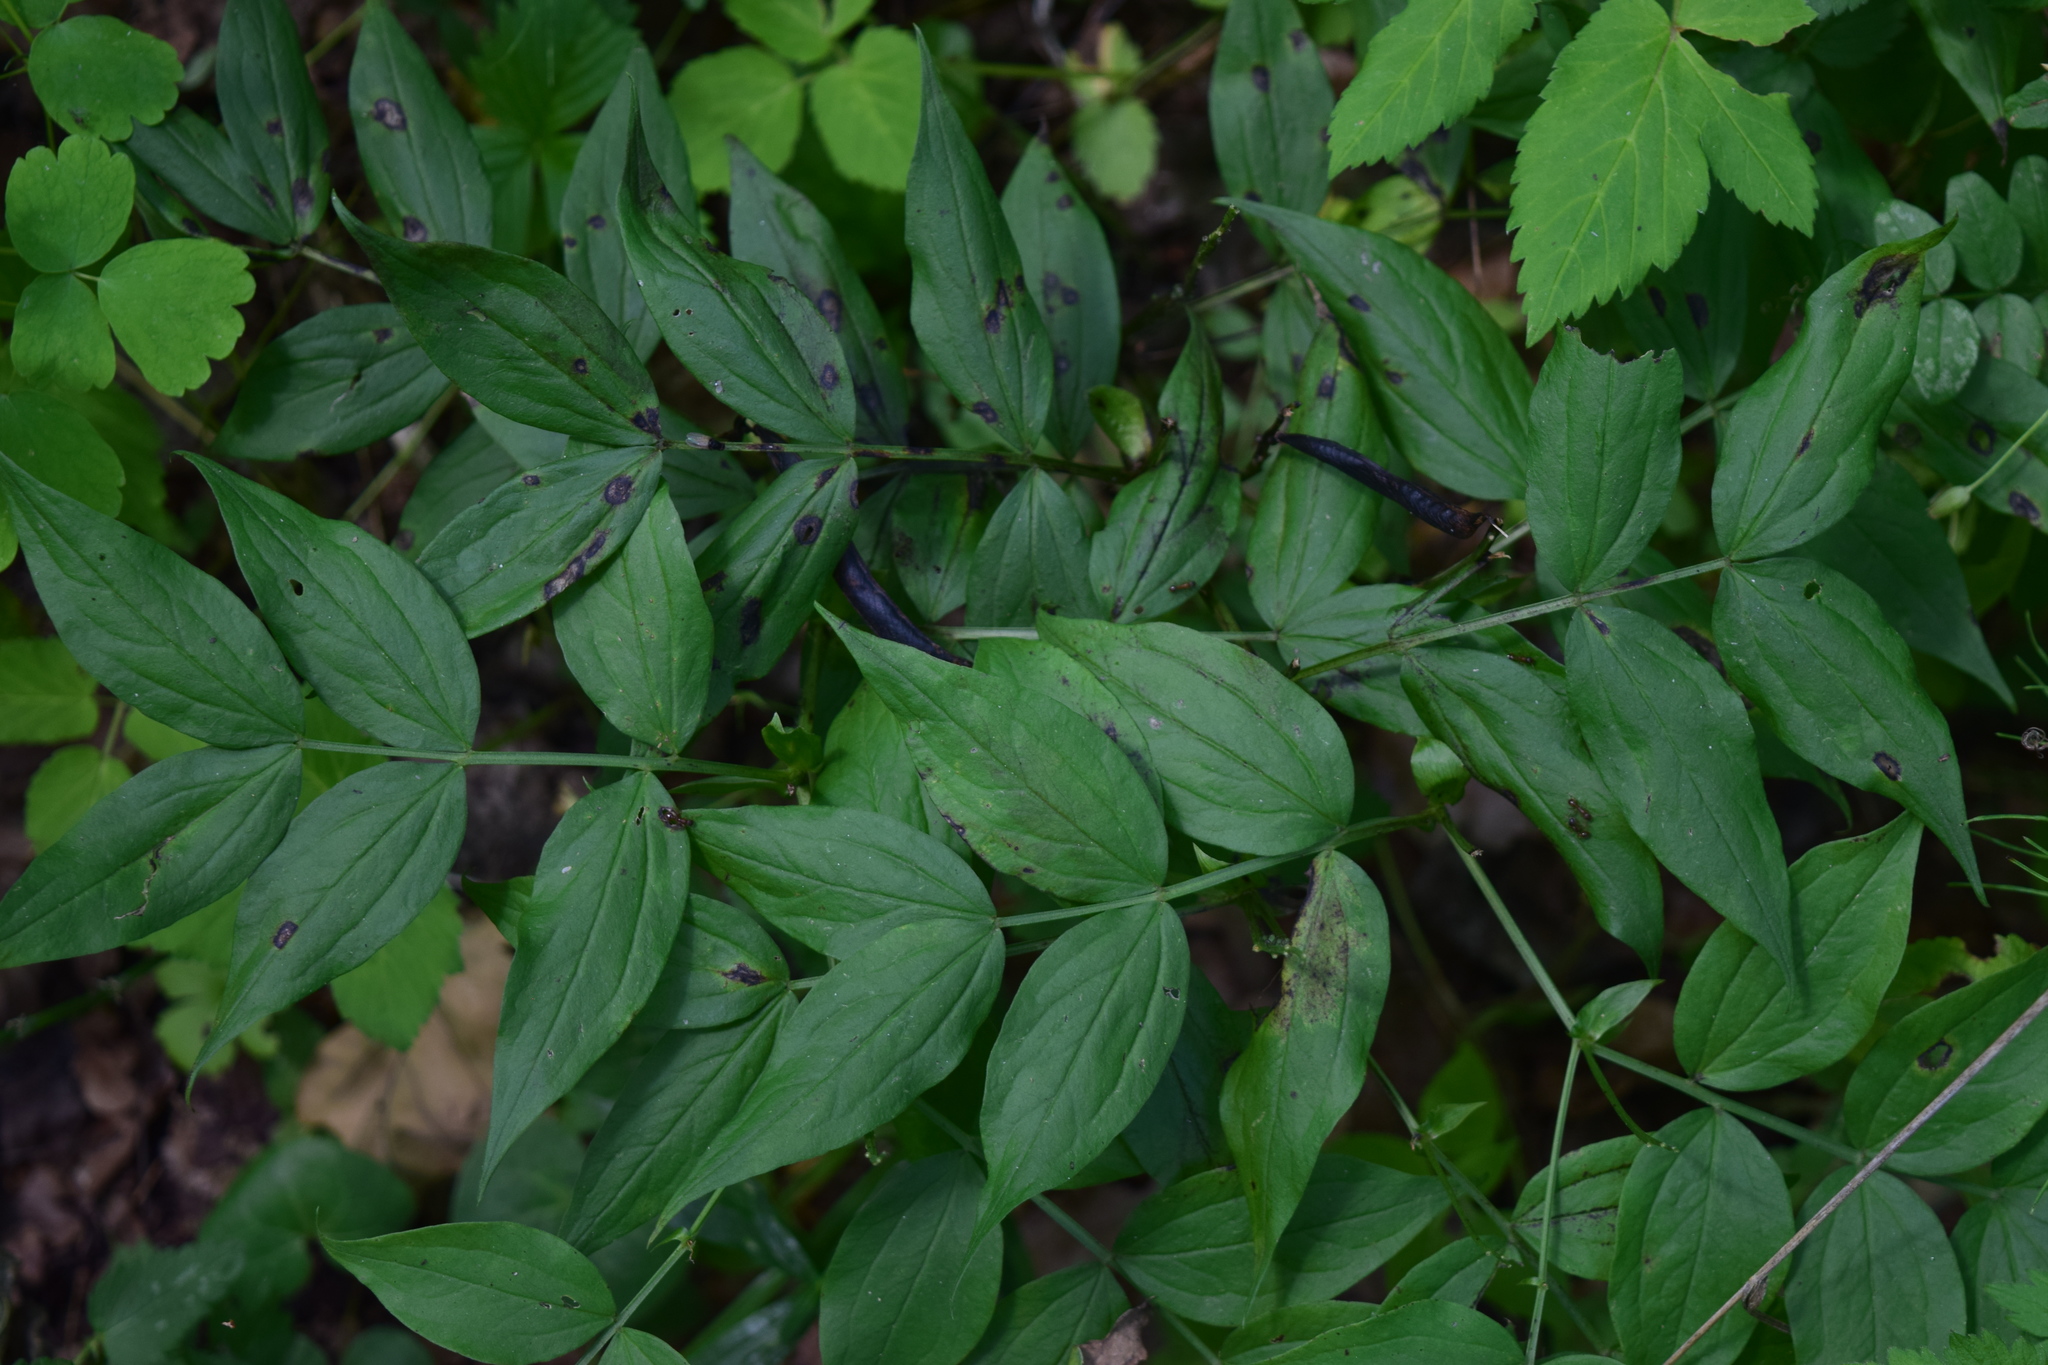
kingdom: Plantae
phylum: Tracheophyta
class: Magnoliopsida
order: Fabales
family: Fabaceae
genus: Lathyrus
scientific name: Lathyrus vernus
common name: Spring pea
